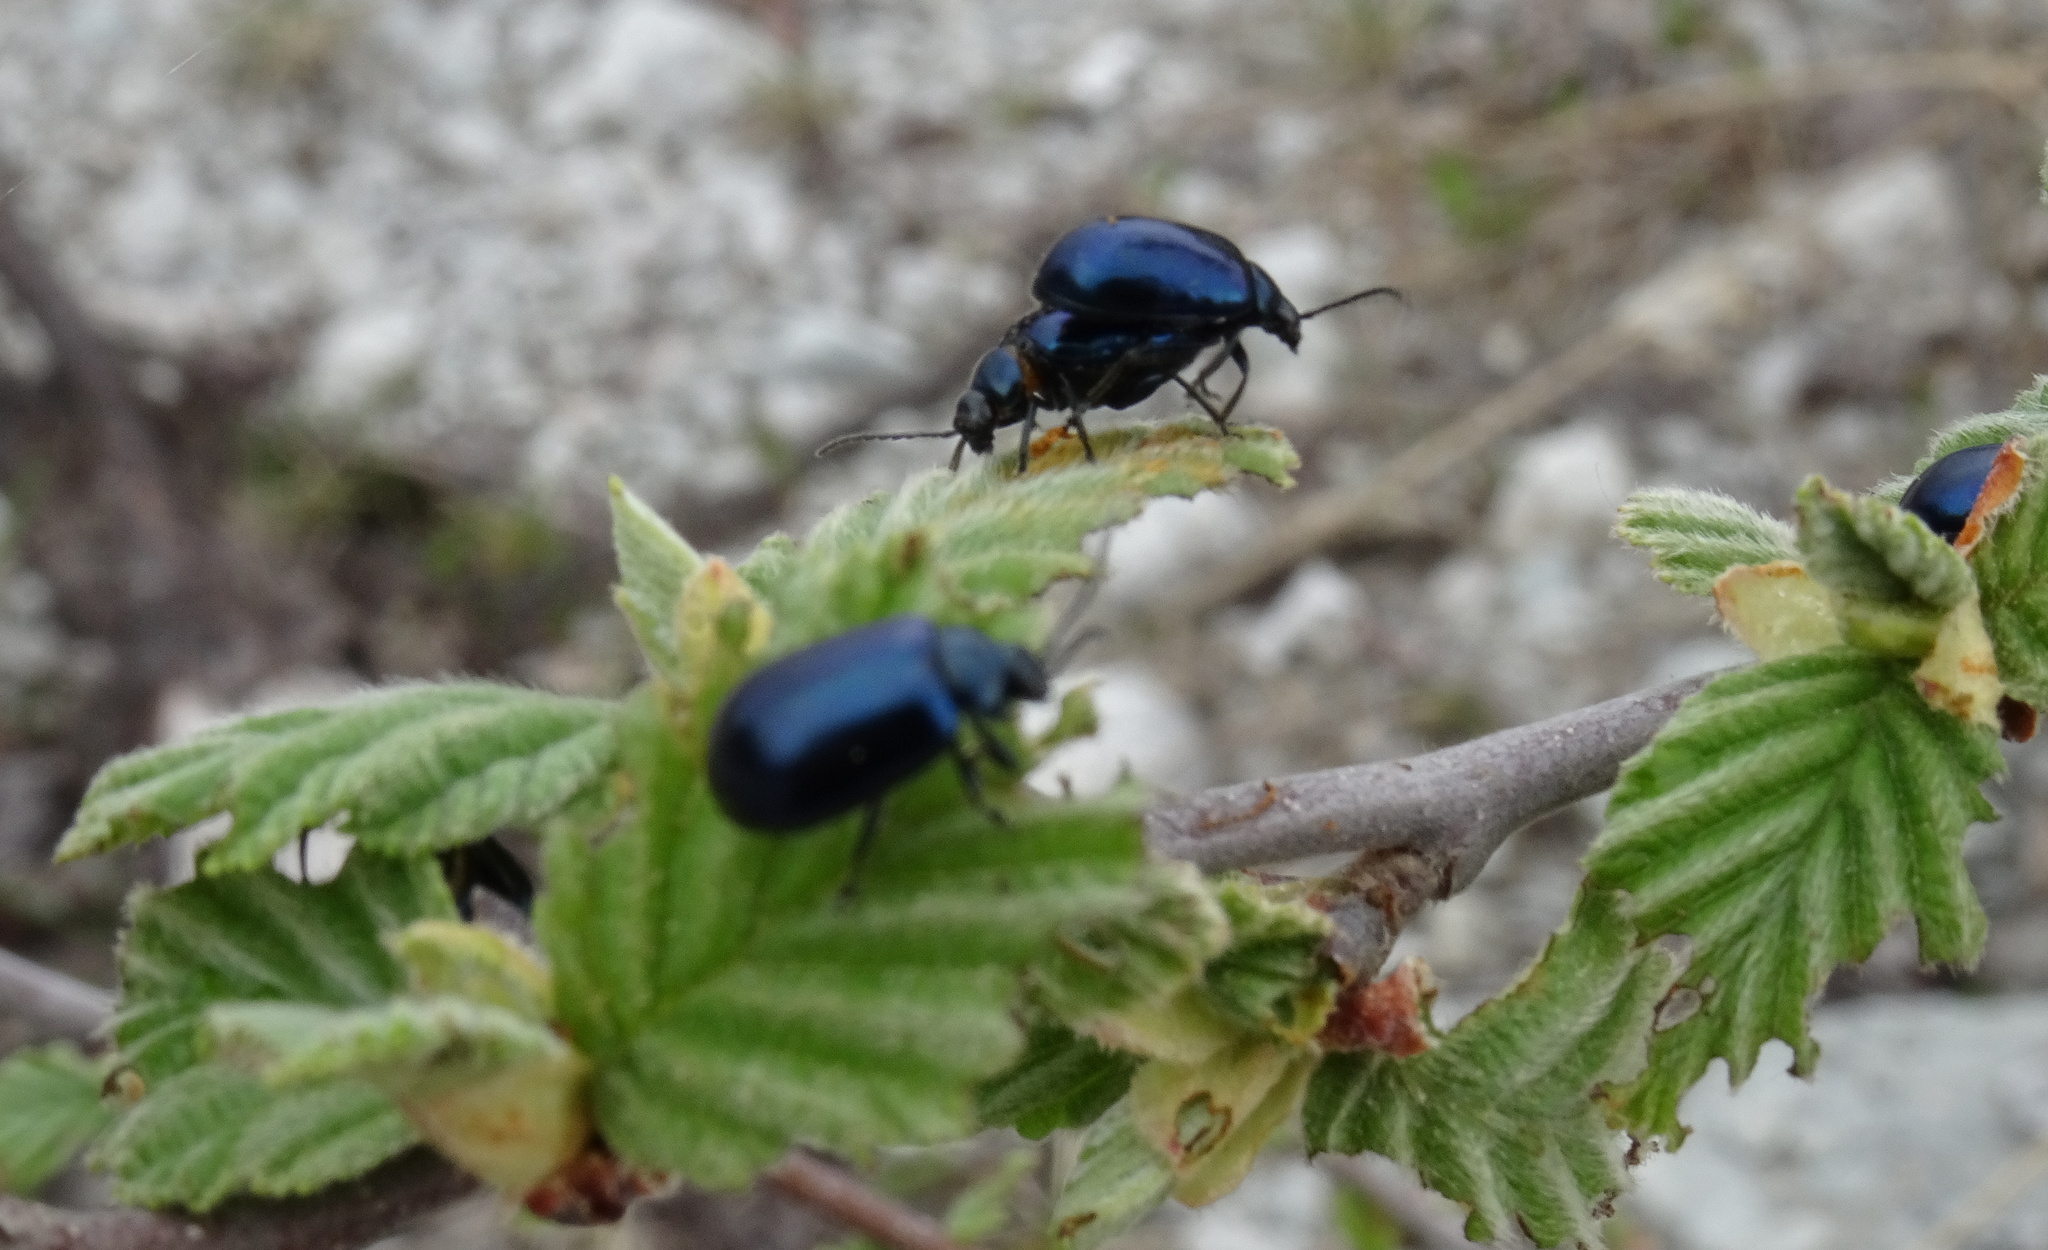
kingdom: Animalia
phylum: Arthropoda
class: Insecta
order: Coleoptera
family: Chrysomelidae
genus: Agelastica
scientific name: Agelastica alni
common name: Alder leaf beetle
